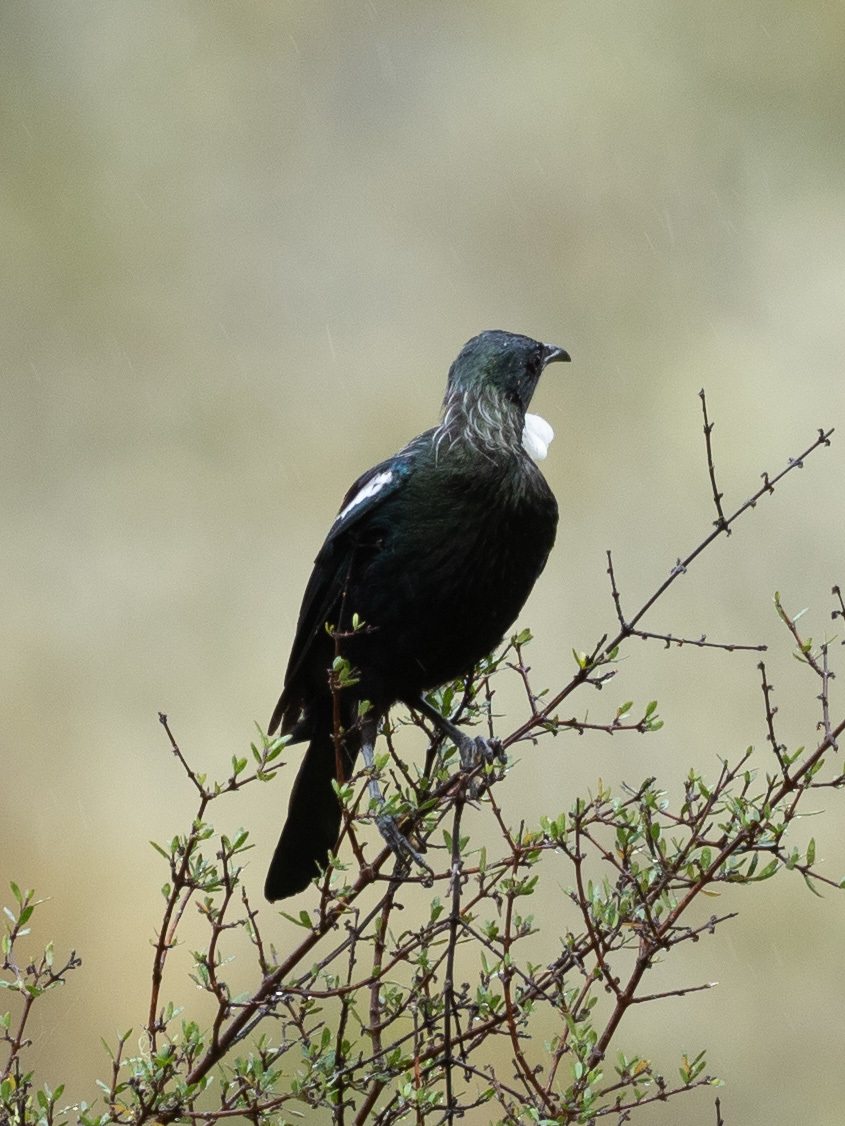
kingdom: Animalia
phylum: Chordata
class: Aves
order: Passeriformes
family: Meliphagidae
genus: Prosthemadera
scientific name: Prosthemadera novaeseelandiae
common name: Tui
